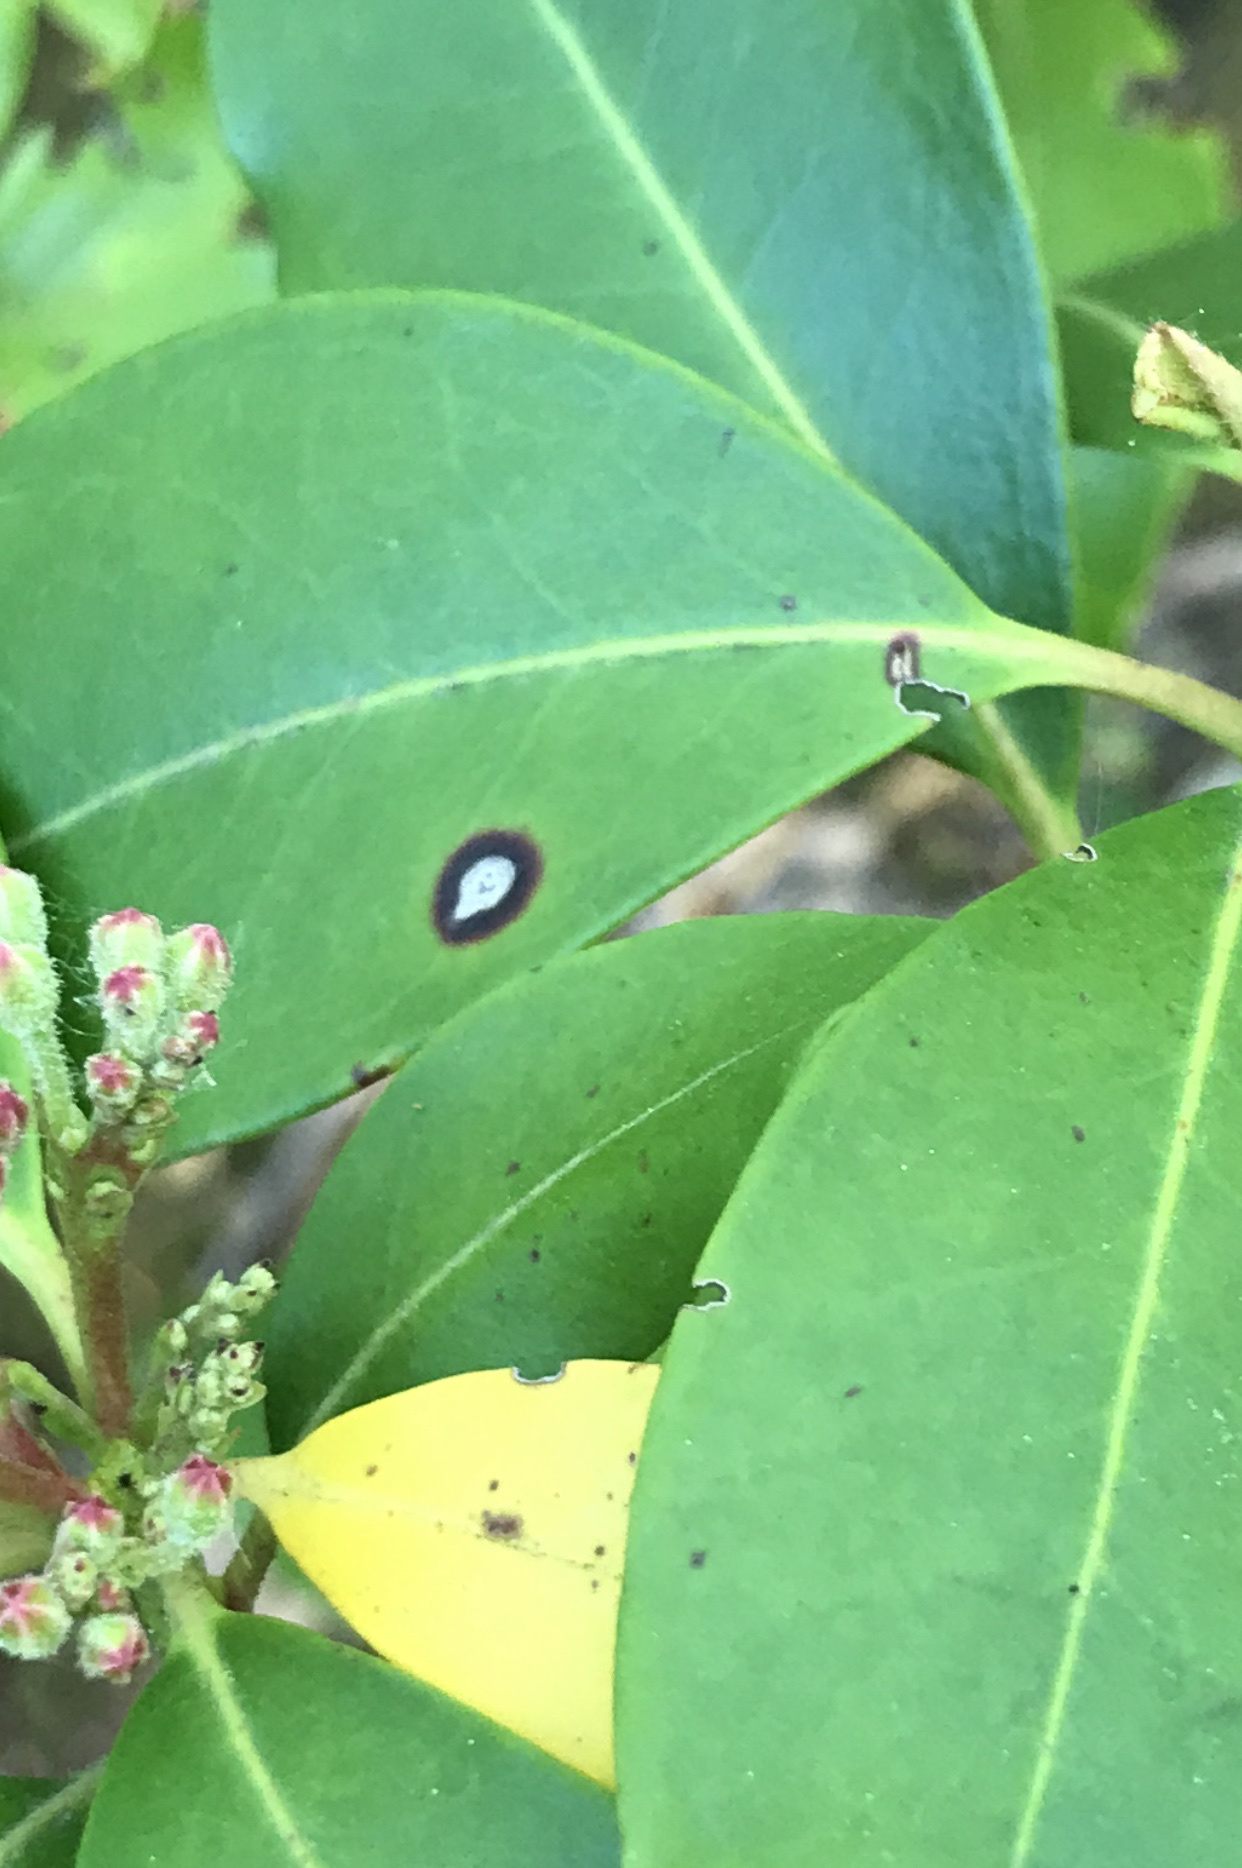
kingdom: Fungi
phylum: Ascomycota
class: Dothideomycetes
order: Mycosphaerellales
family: Mycosphaerellaceae
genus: Mycosphaerella
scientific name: Mycosphaerella colorata
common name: Mountain laurel leaf spot
